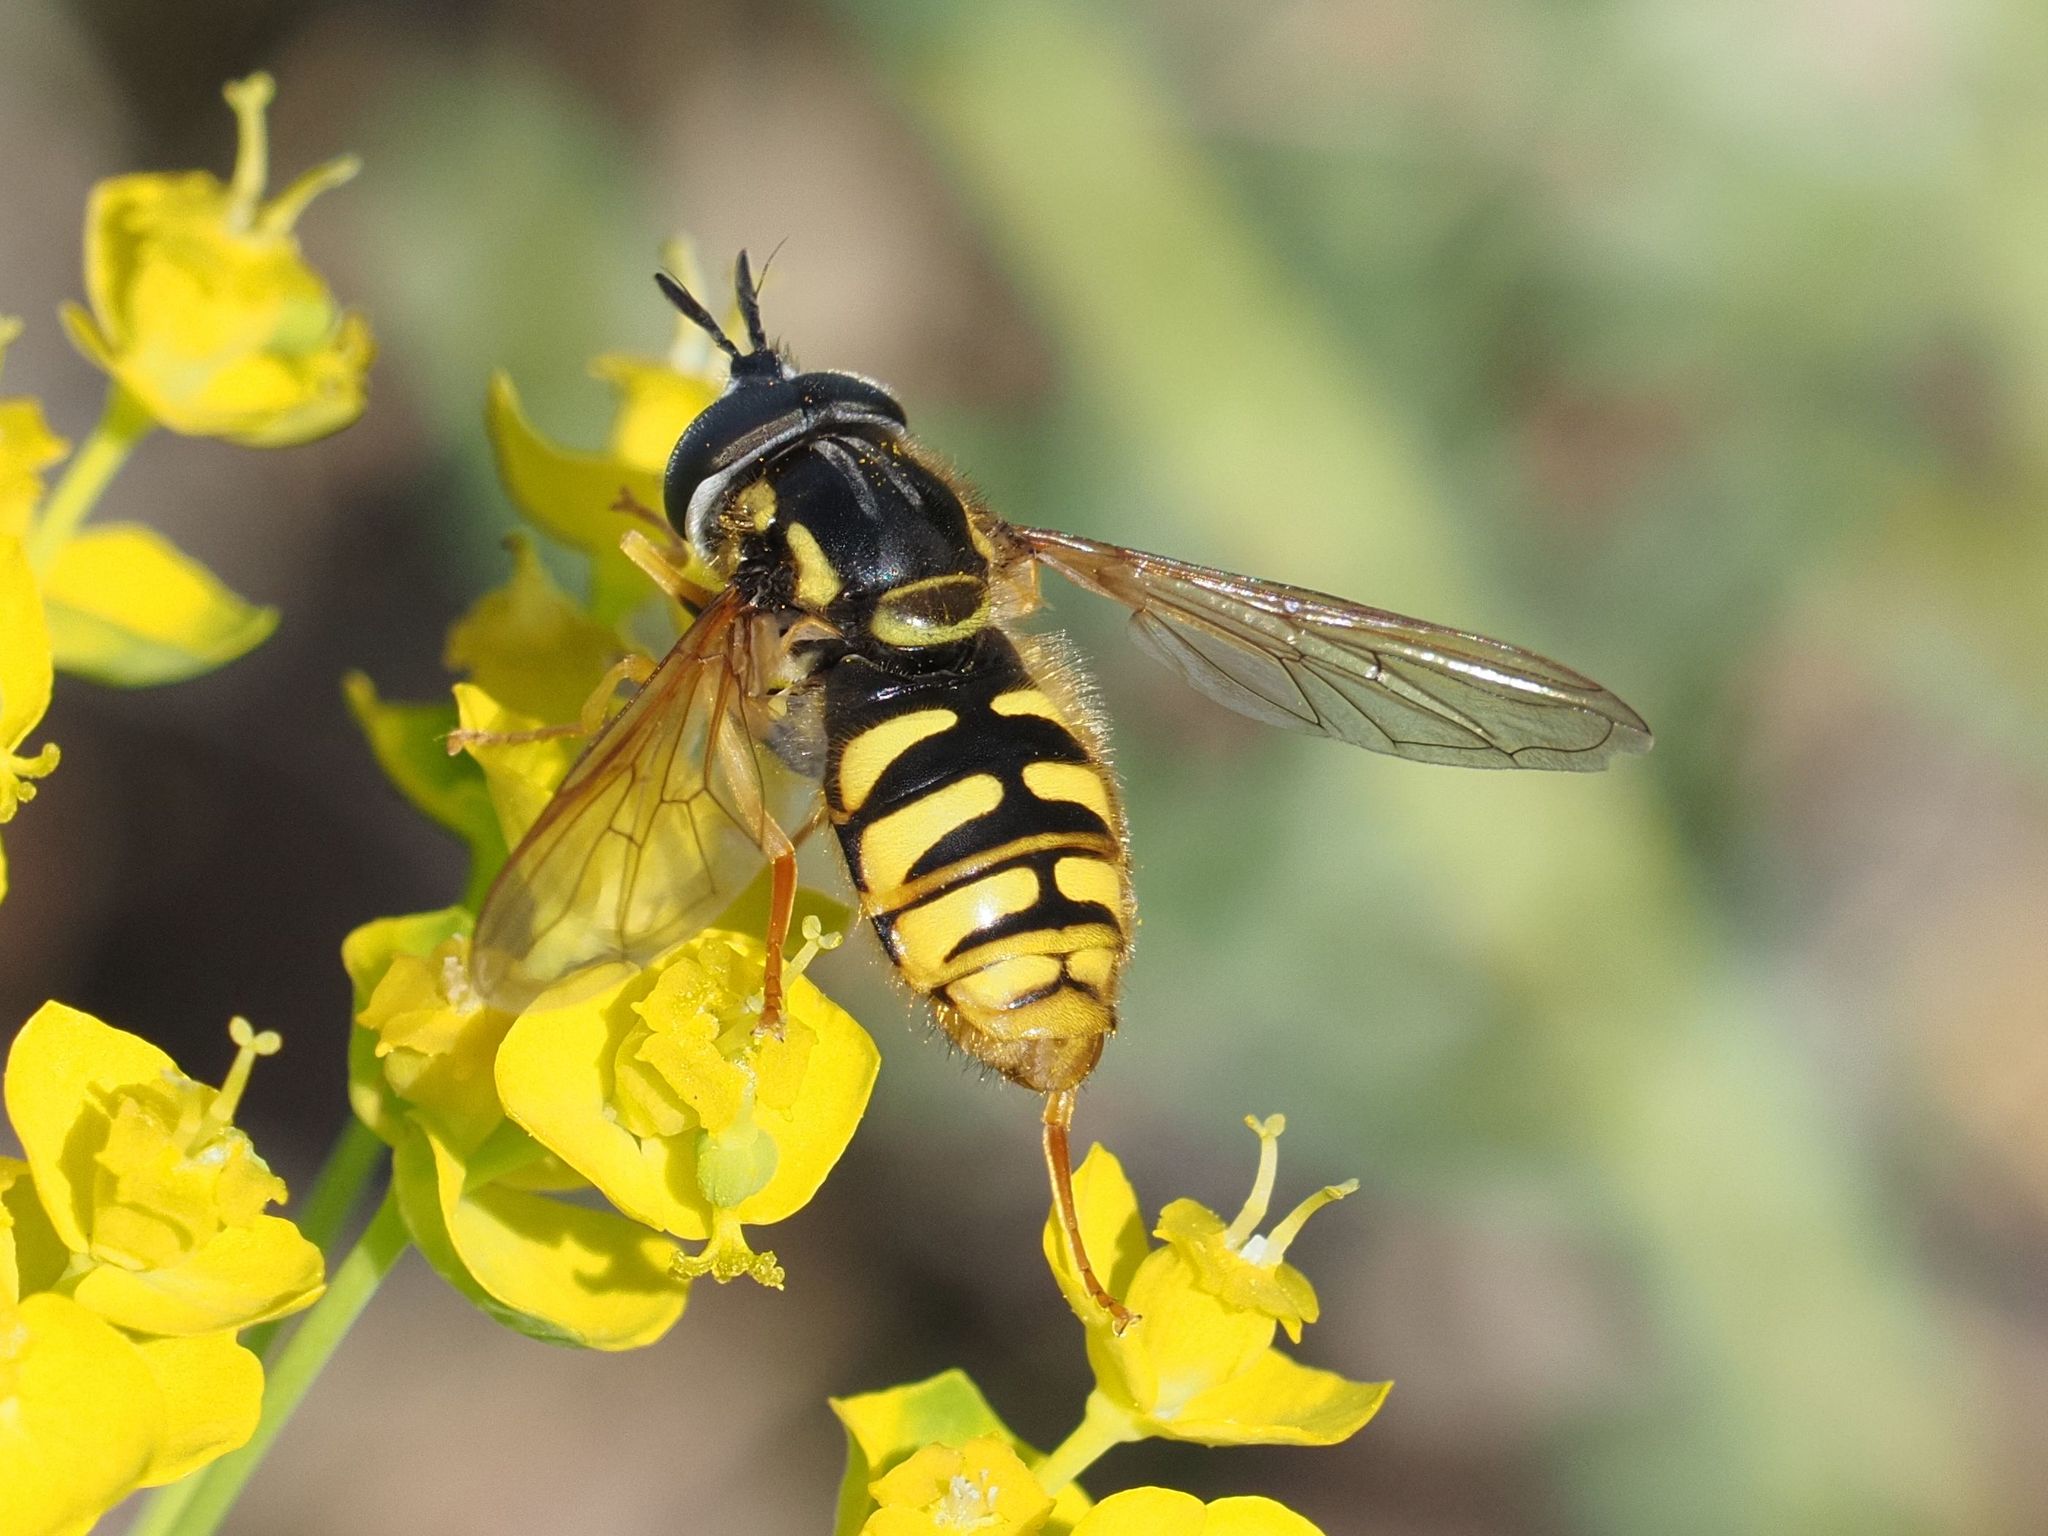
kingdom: Animalia
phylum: Arthropoda
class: Insecta
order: Diptera
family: Syrphidae
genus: Chrysotoxum
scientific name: Chrysotoxum cautum
